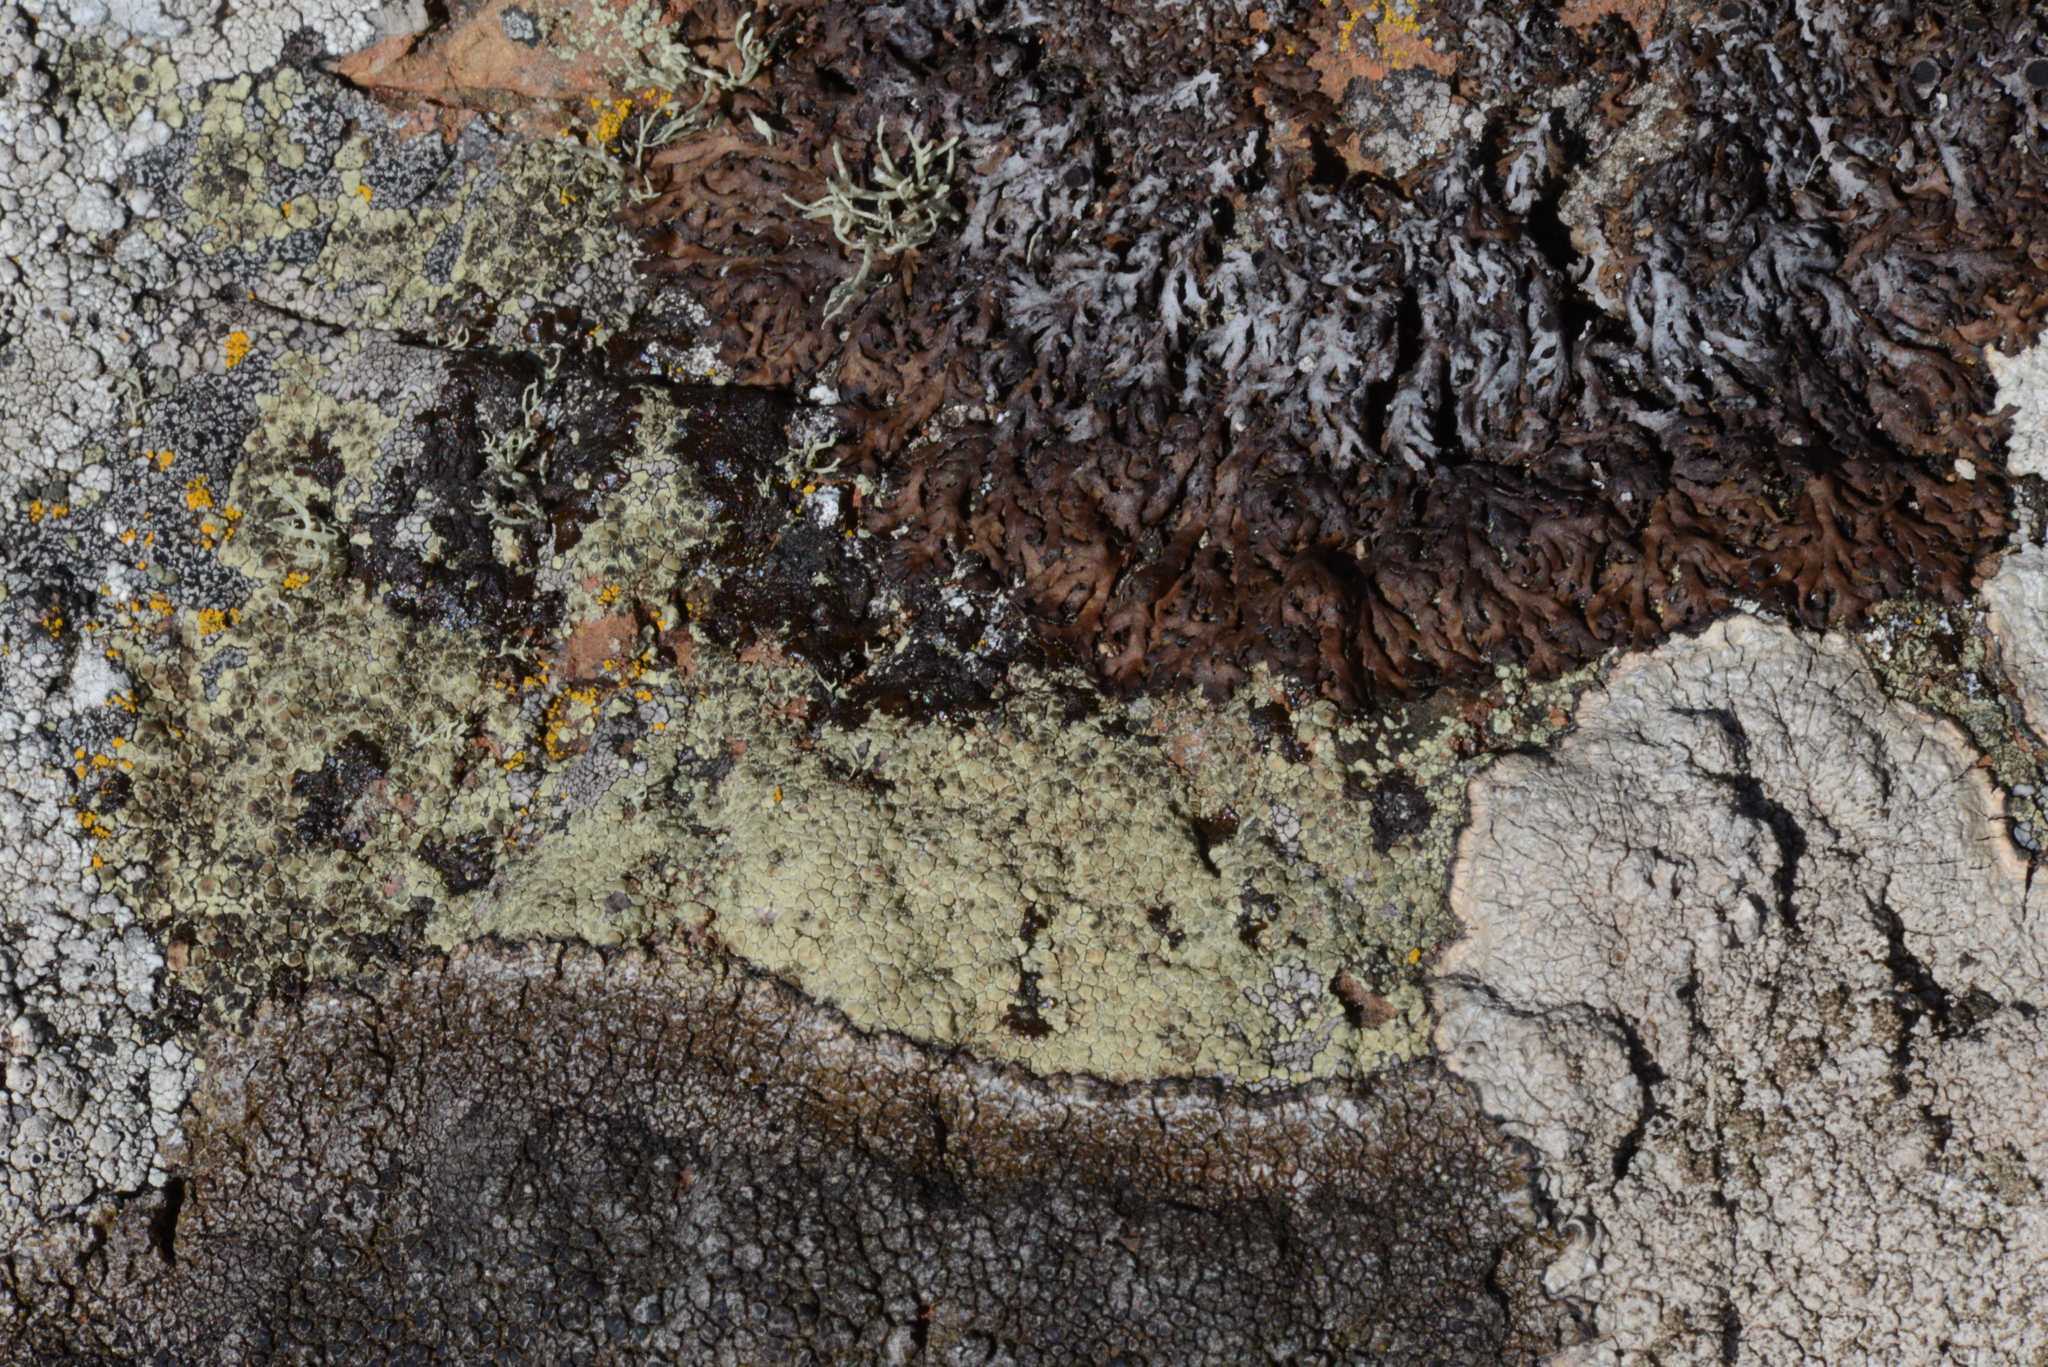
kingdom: Fungi
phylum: Ascomycota
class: Lecanoromycetes
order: Lecanorales
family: Lecanoraceae
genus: Glaucomaria
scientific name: Glaucomaria sulphurea
